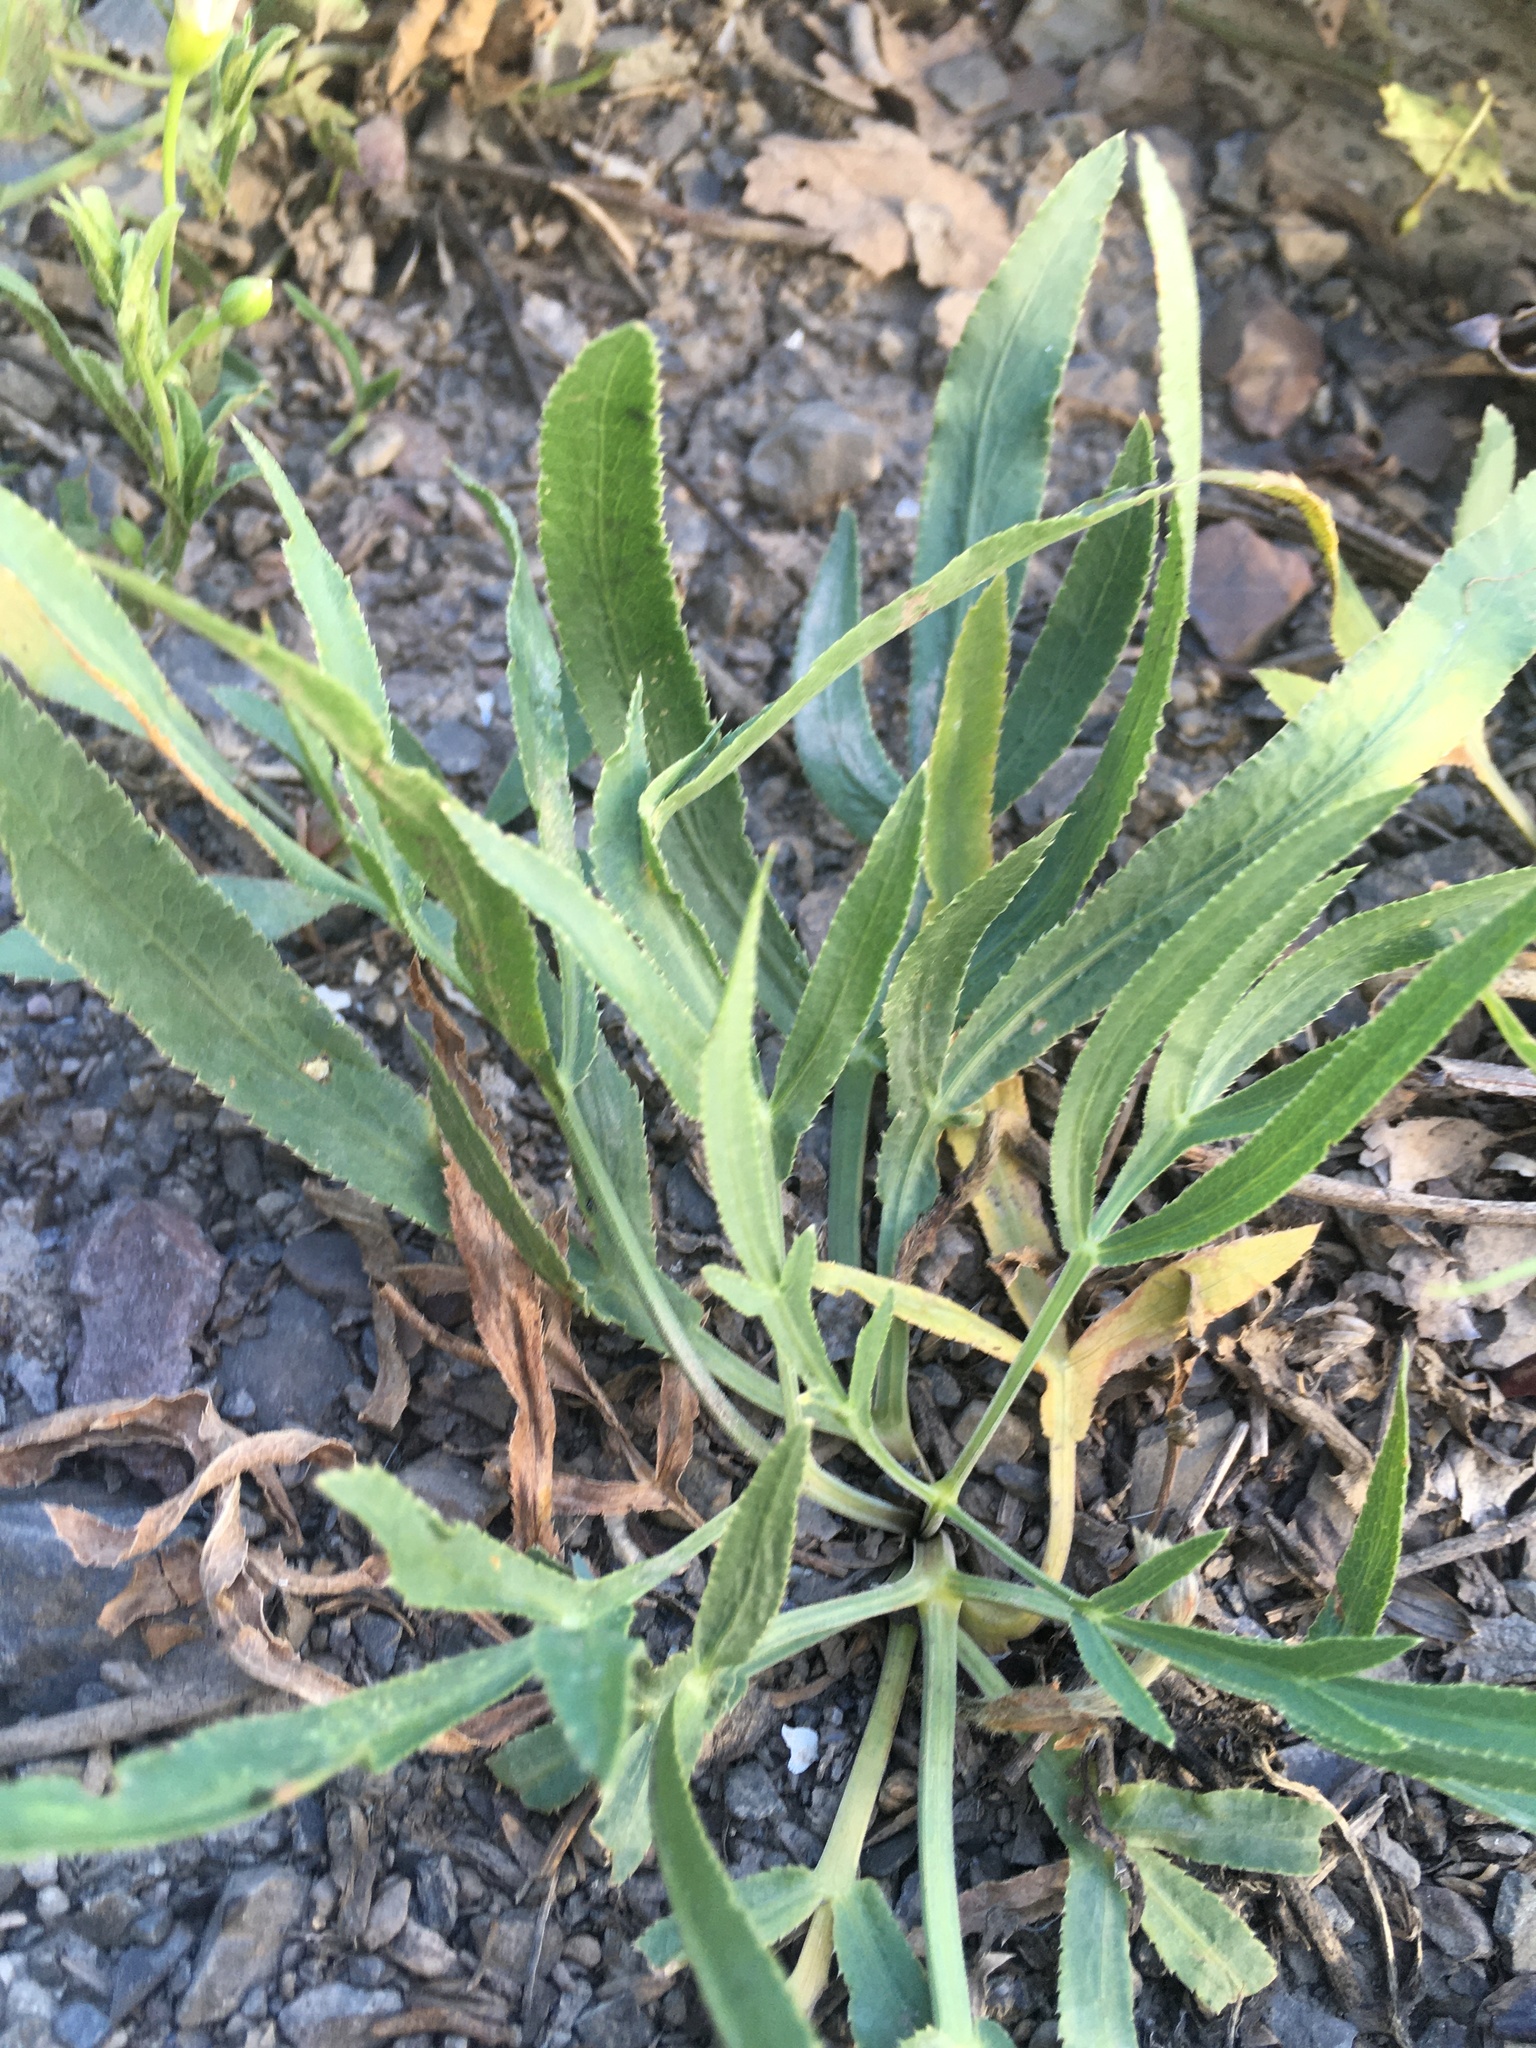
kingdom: Plantae
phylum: Tracheophyta
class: Magnoliopsida
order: Apiales
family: Apiaceae
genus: Falcaria
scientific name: Falcaria vulgaris
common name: Longleaf
